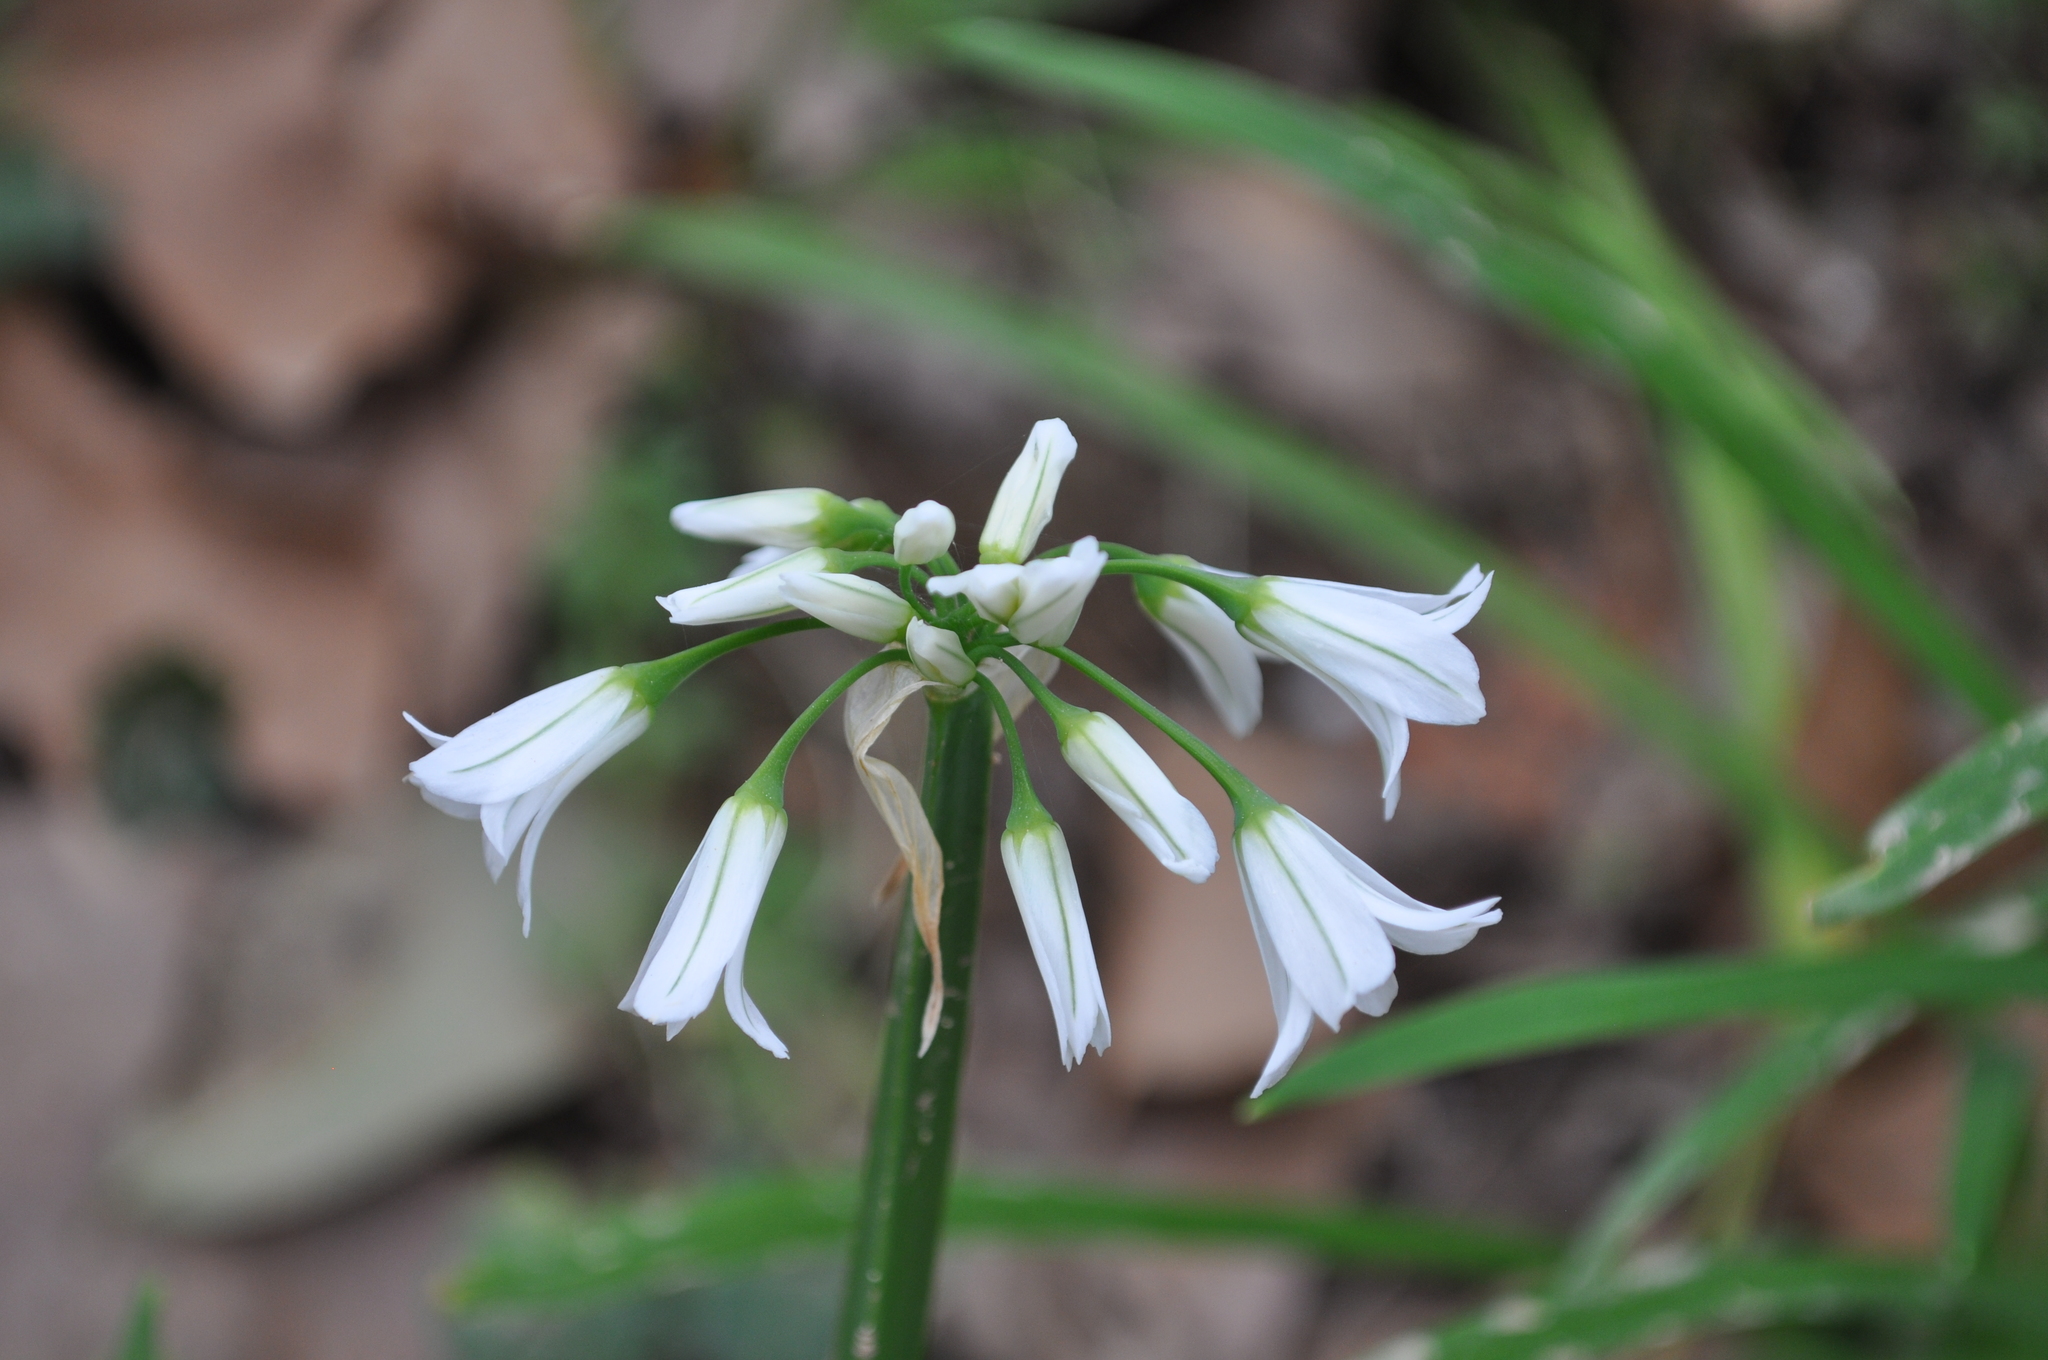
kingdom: Plantae
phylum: Tracheophyta
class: Liliopsida
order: Asparagales
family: Amaryllidaceae
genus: Allium
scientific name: Allium triquetrum
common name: Three-cornered garlic
